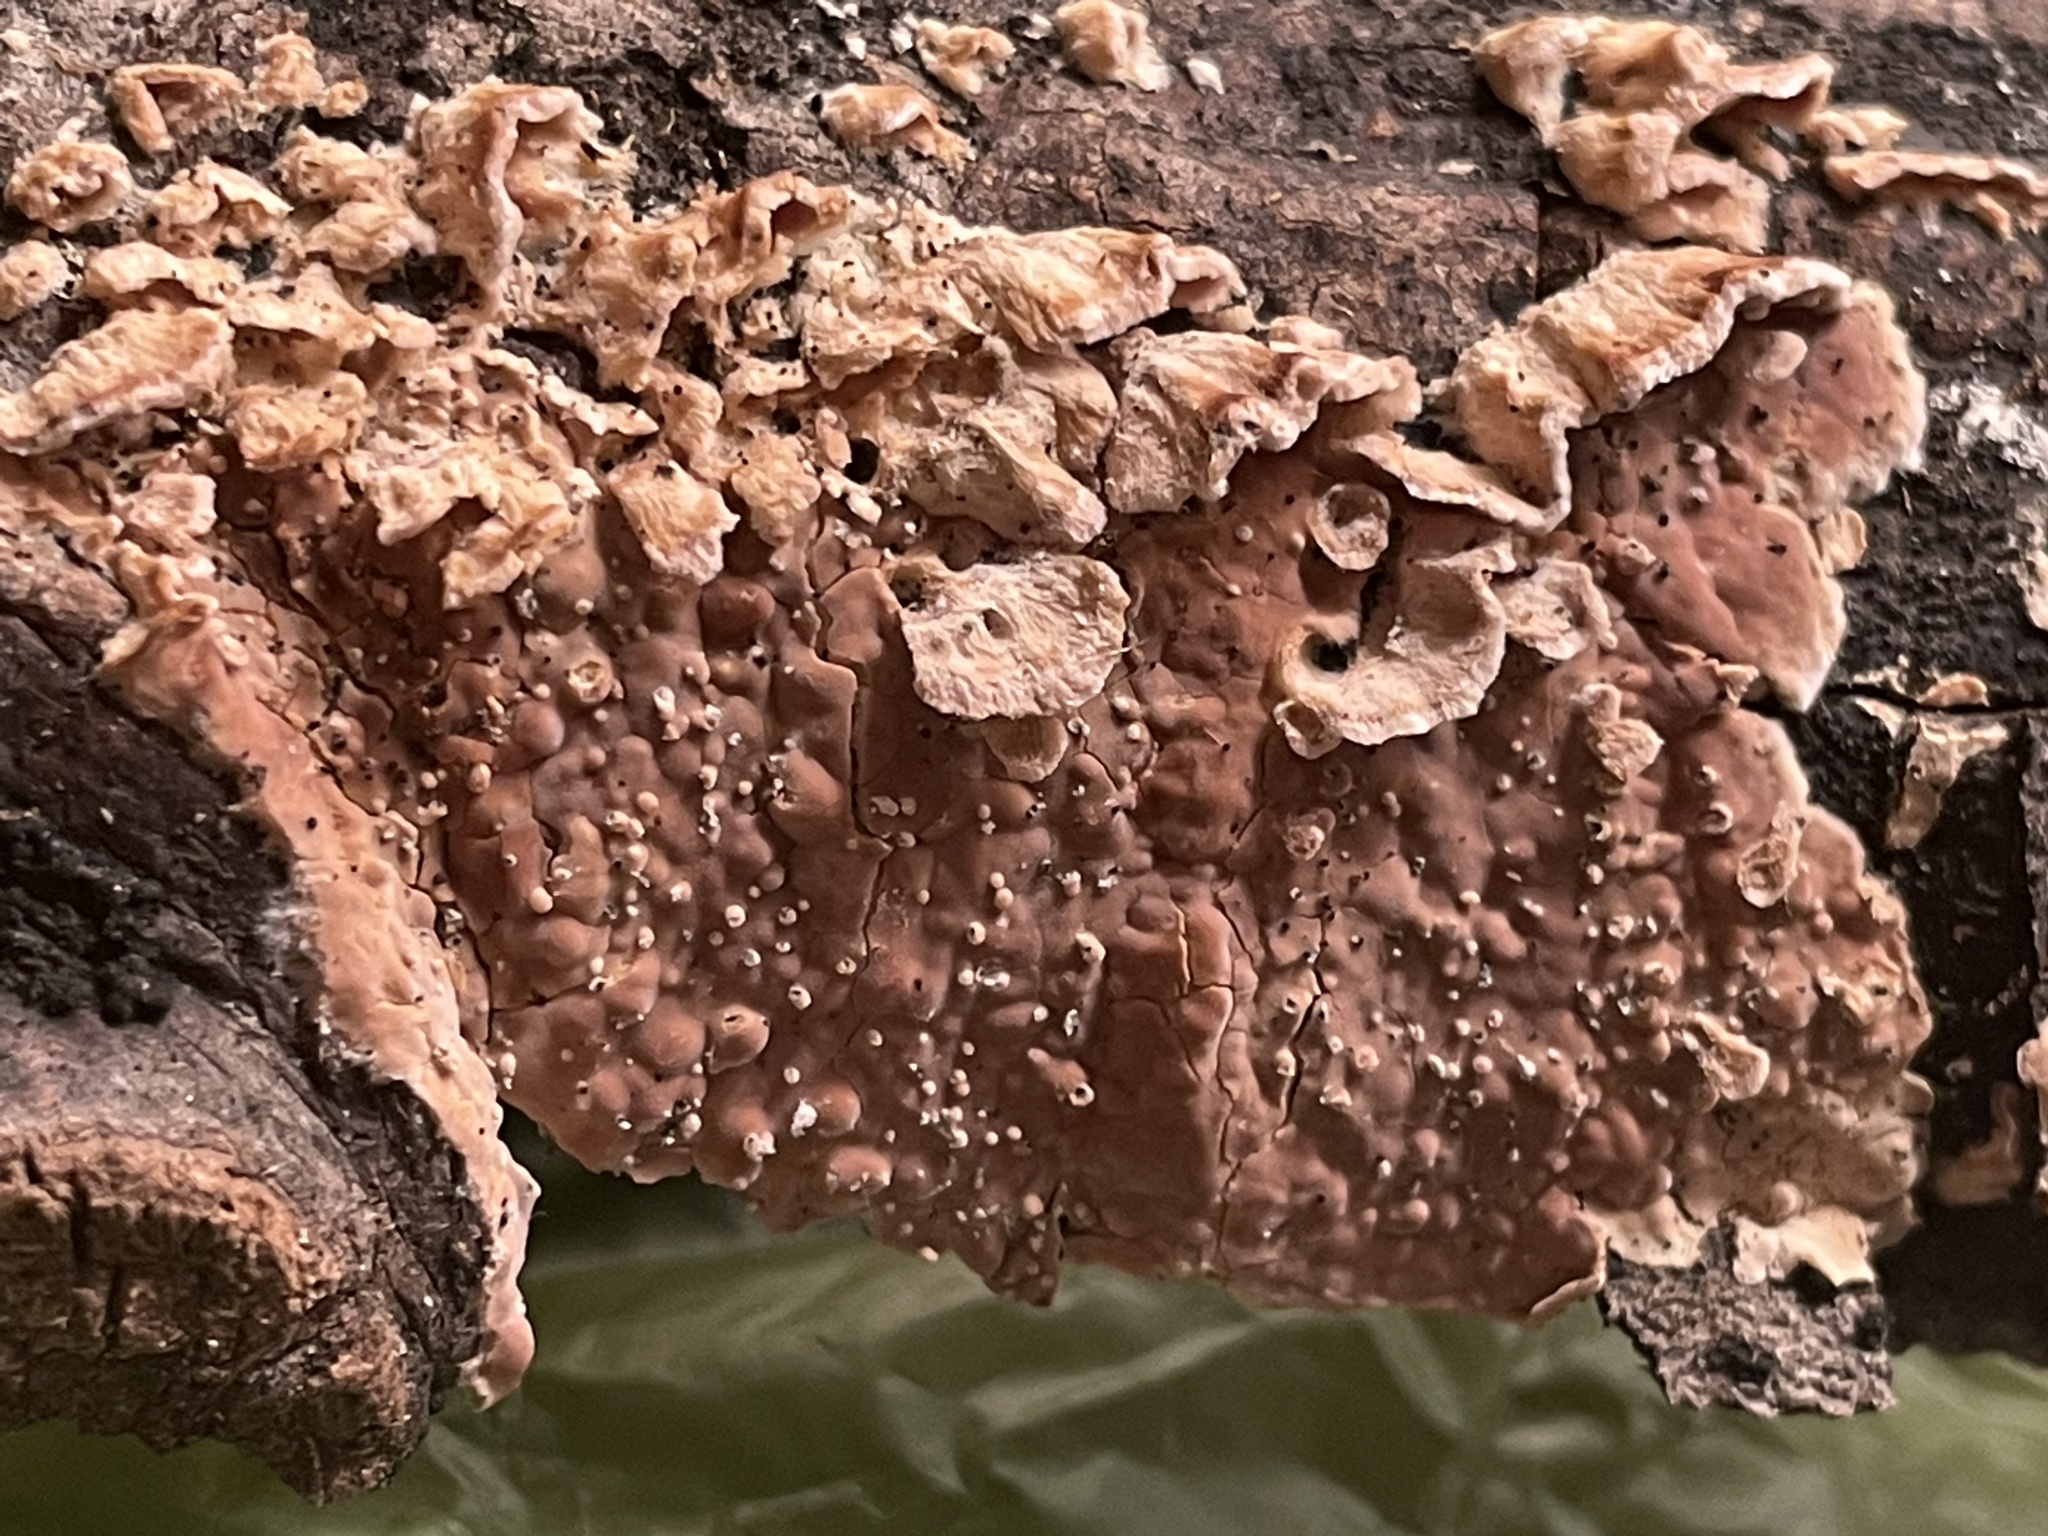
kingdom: Fungi
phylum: Basidiomycota
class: Agaricomycetes
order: Agaricales
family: Physalacriaceae
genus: Cylindrobasidium
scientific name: Cylindrobasidium laeve
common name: Tear dropper
